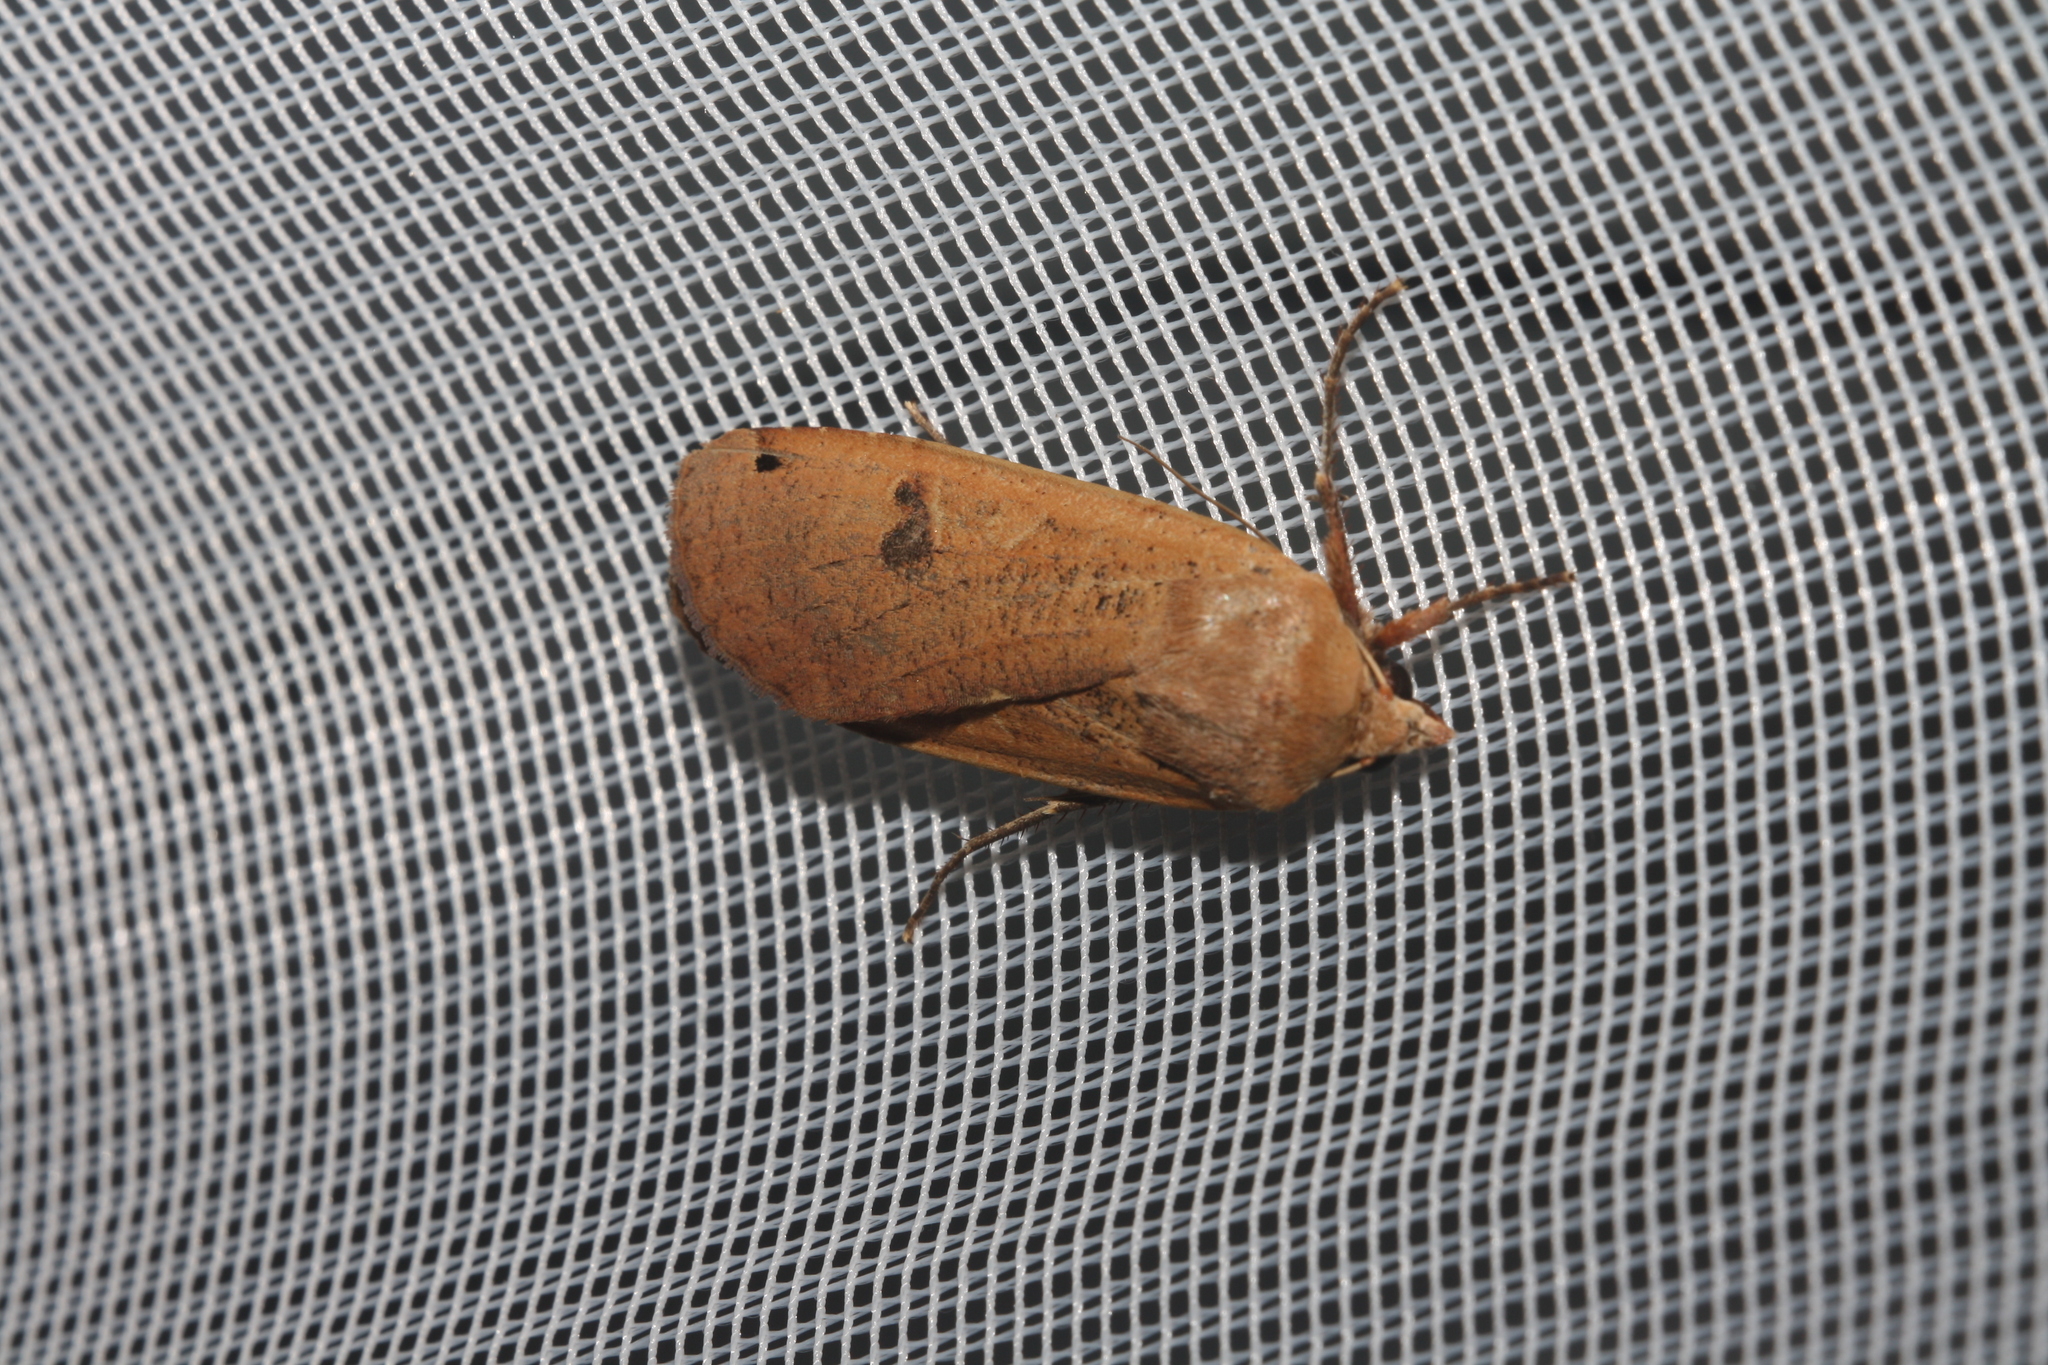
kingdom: Animalia
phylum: Arthropoda
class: Insecta
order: Lepidoptera
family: Noctuidae
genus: Noctua
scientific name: Noctua pronuba
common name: Large yellow underwing
